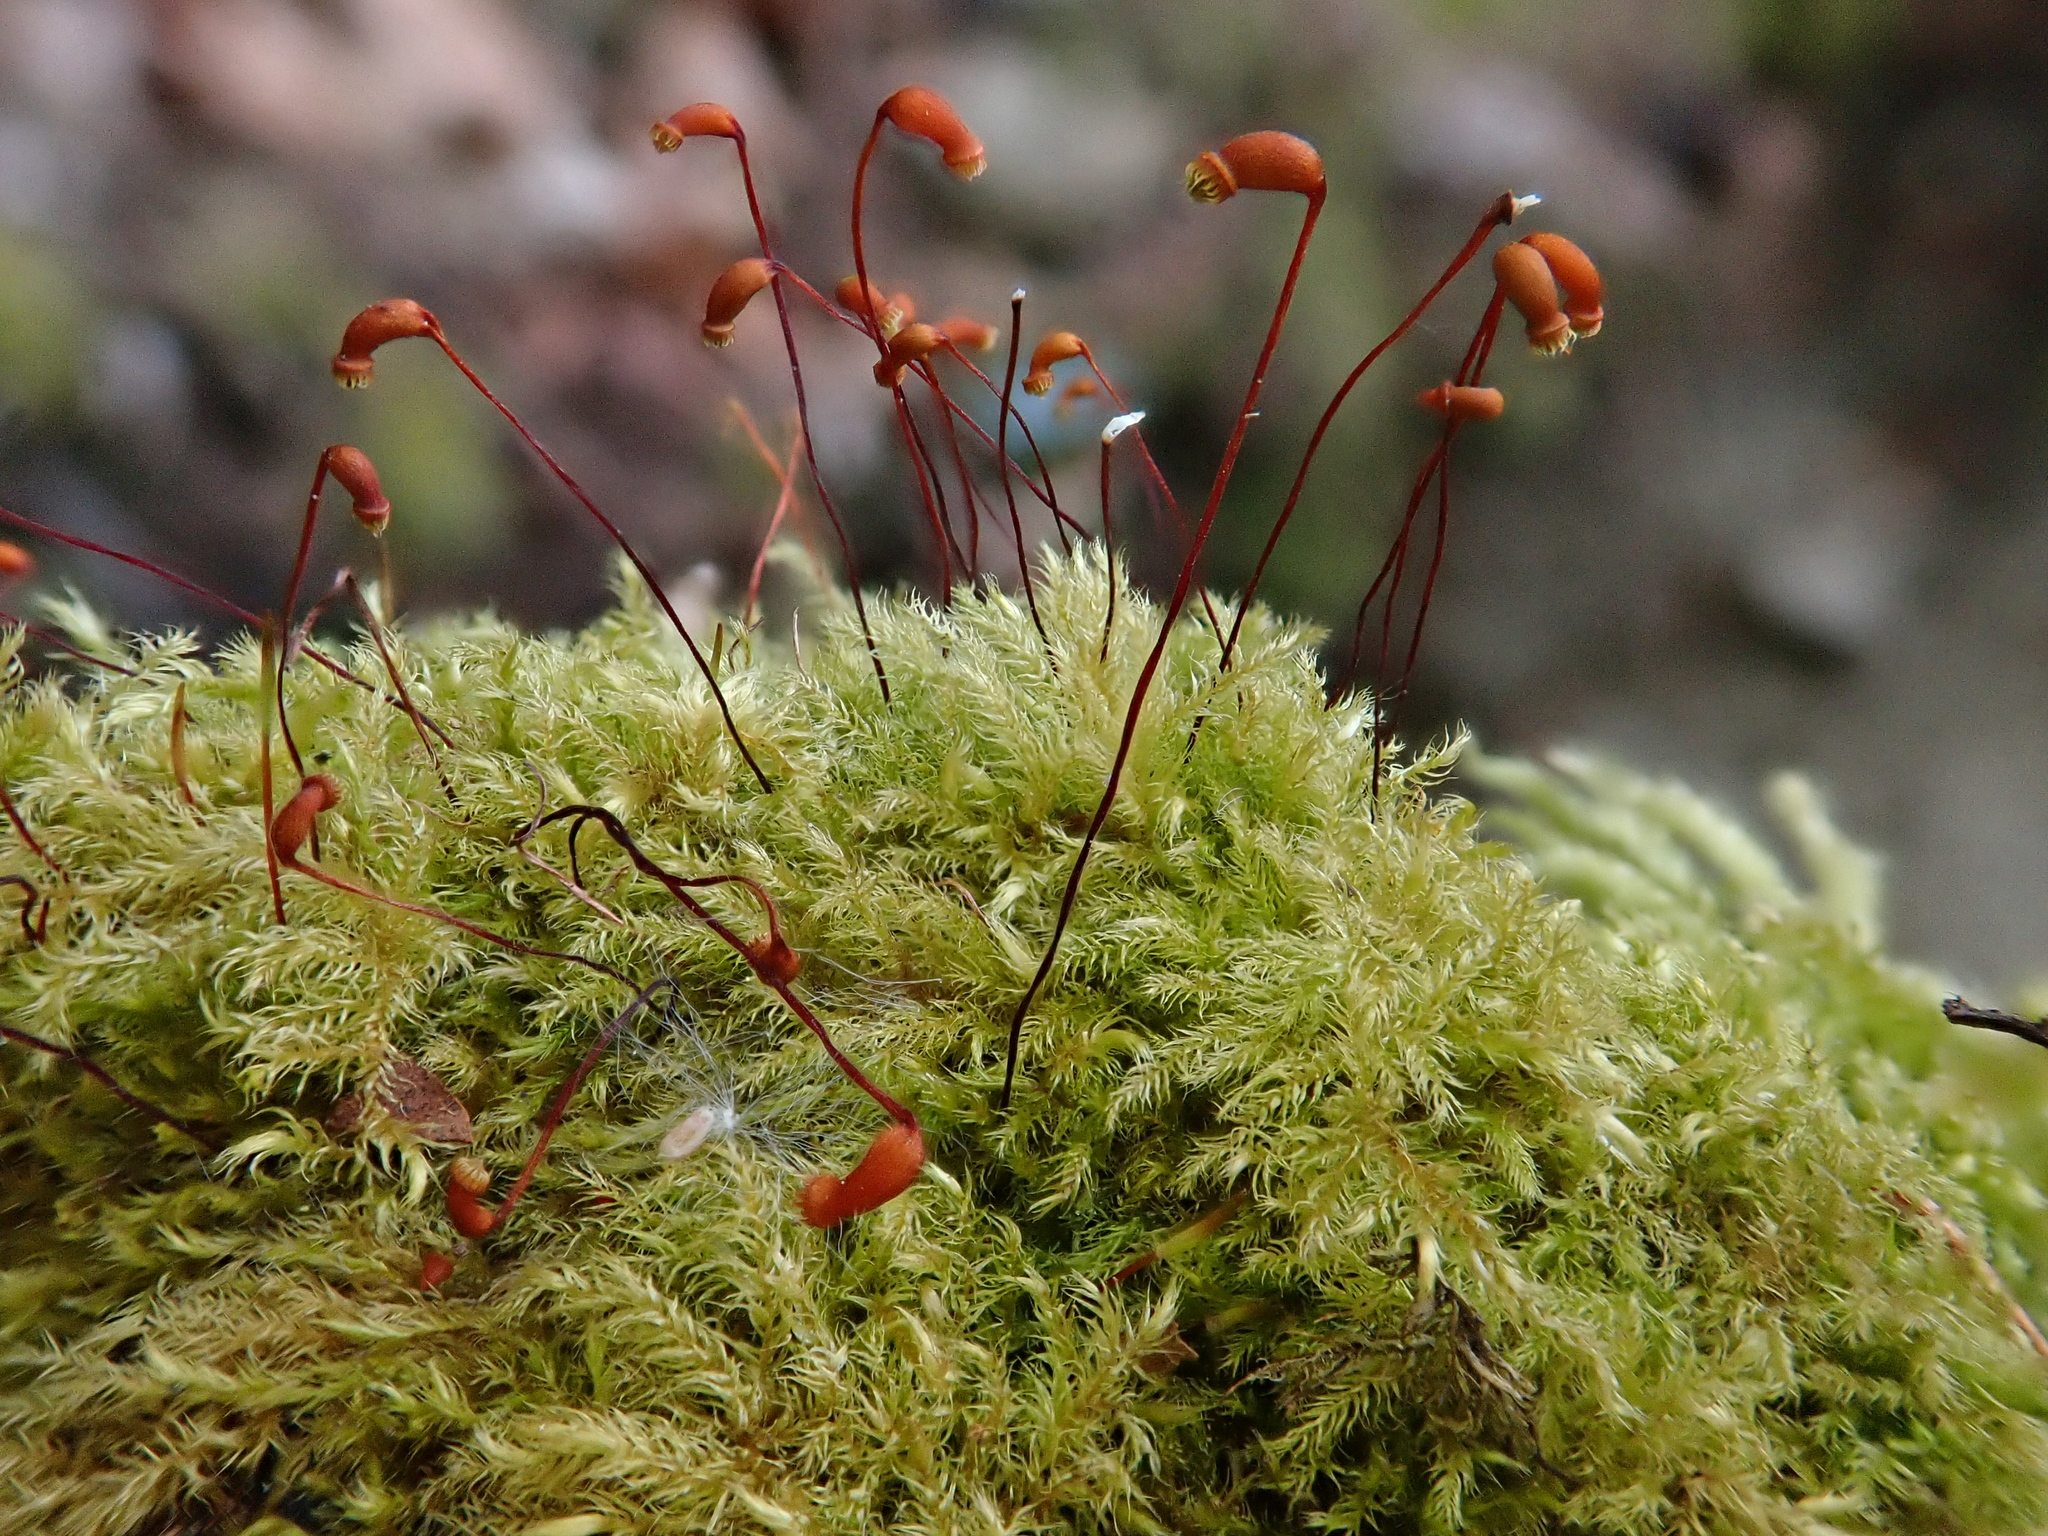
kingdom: Plantae
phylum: Bryophyta
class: Bryopsida
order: Hypnales
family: Brachytheciaceae
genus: Brachytheciastrum
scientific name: Brachytheciastrum velutinum
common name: Velvet feather-moss
